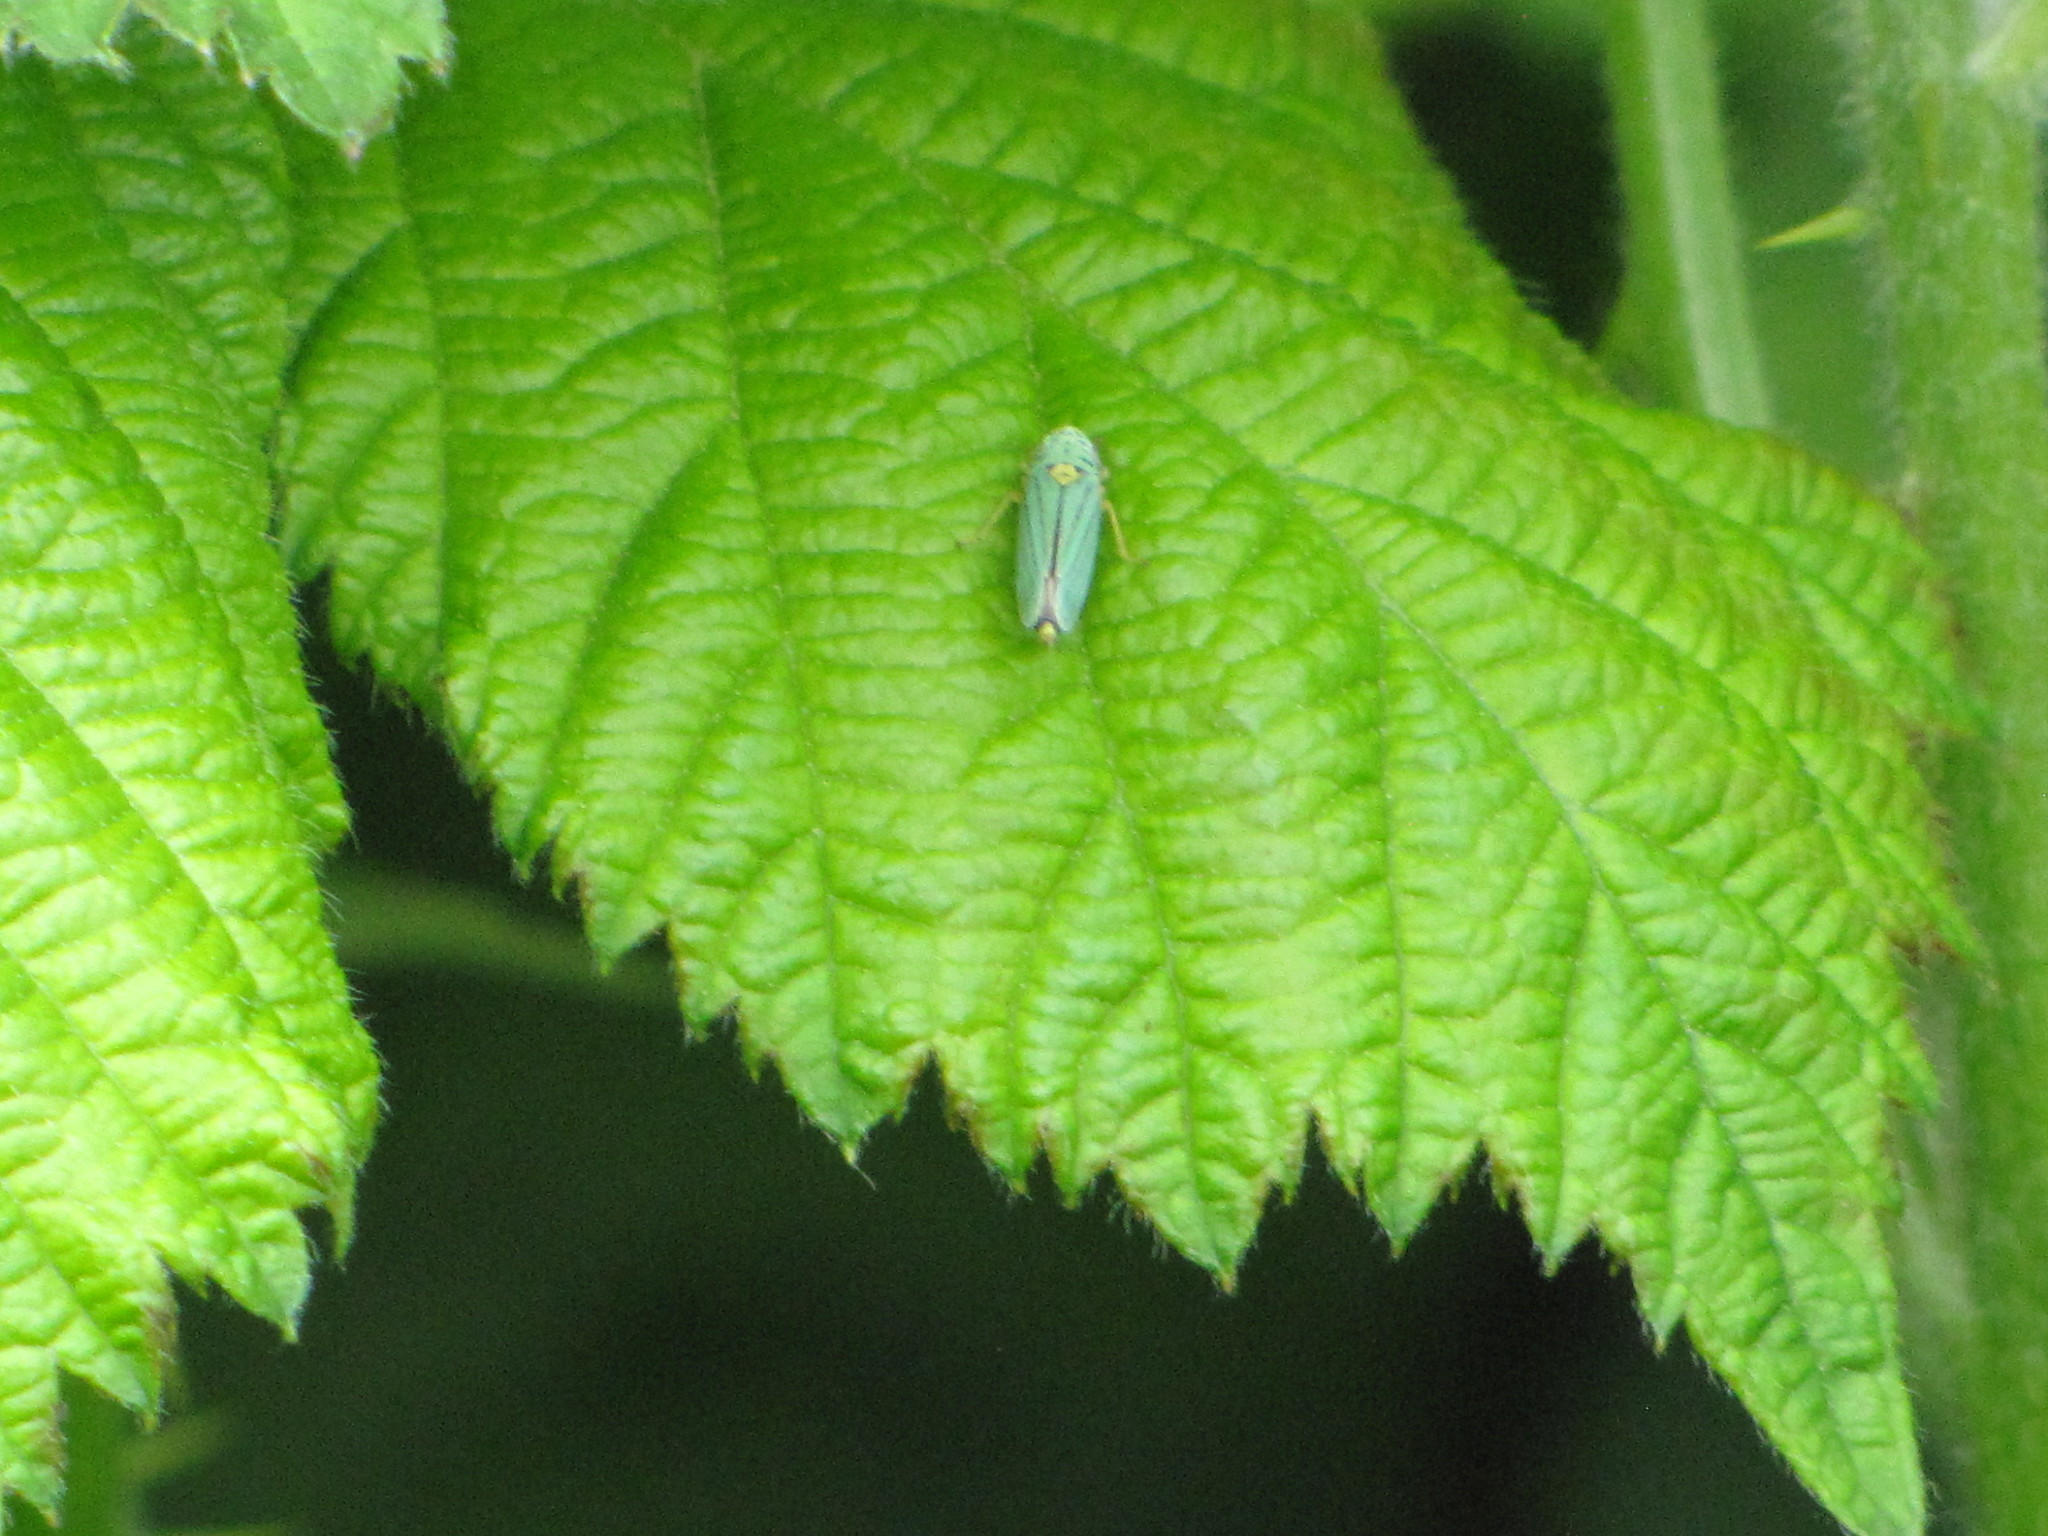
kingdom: Animalia
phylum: Arthropoda
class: Insecta
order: Hemiptera
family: Cicadellidae
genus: Graphocephala
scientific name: Graphocephala atropunctata
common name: Blue-green sharpshooter
